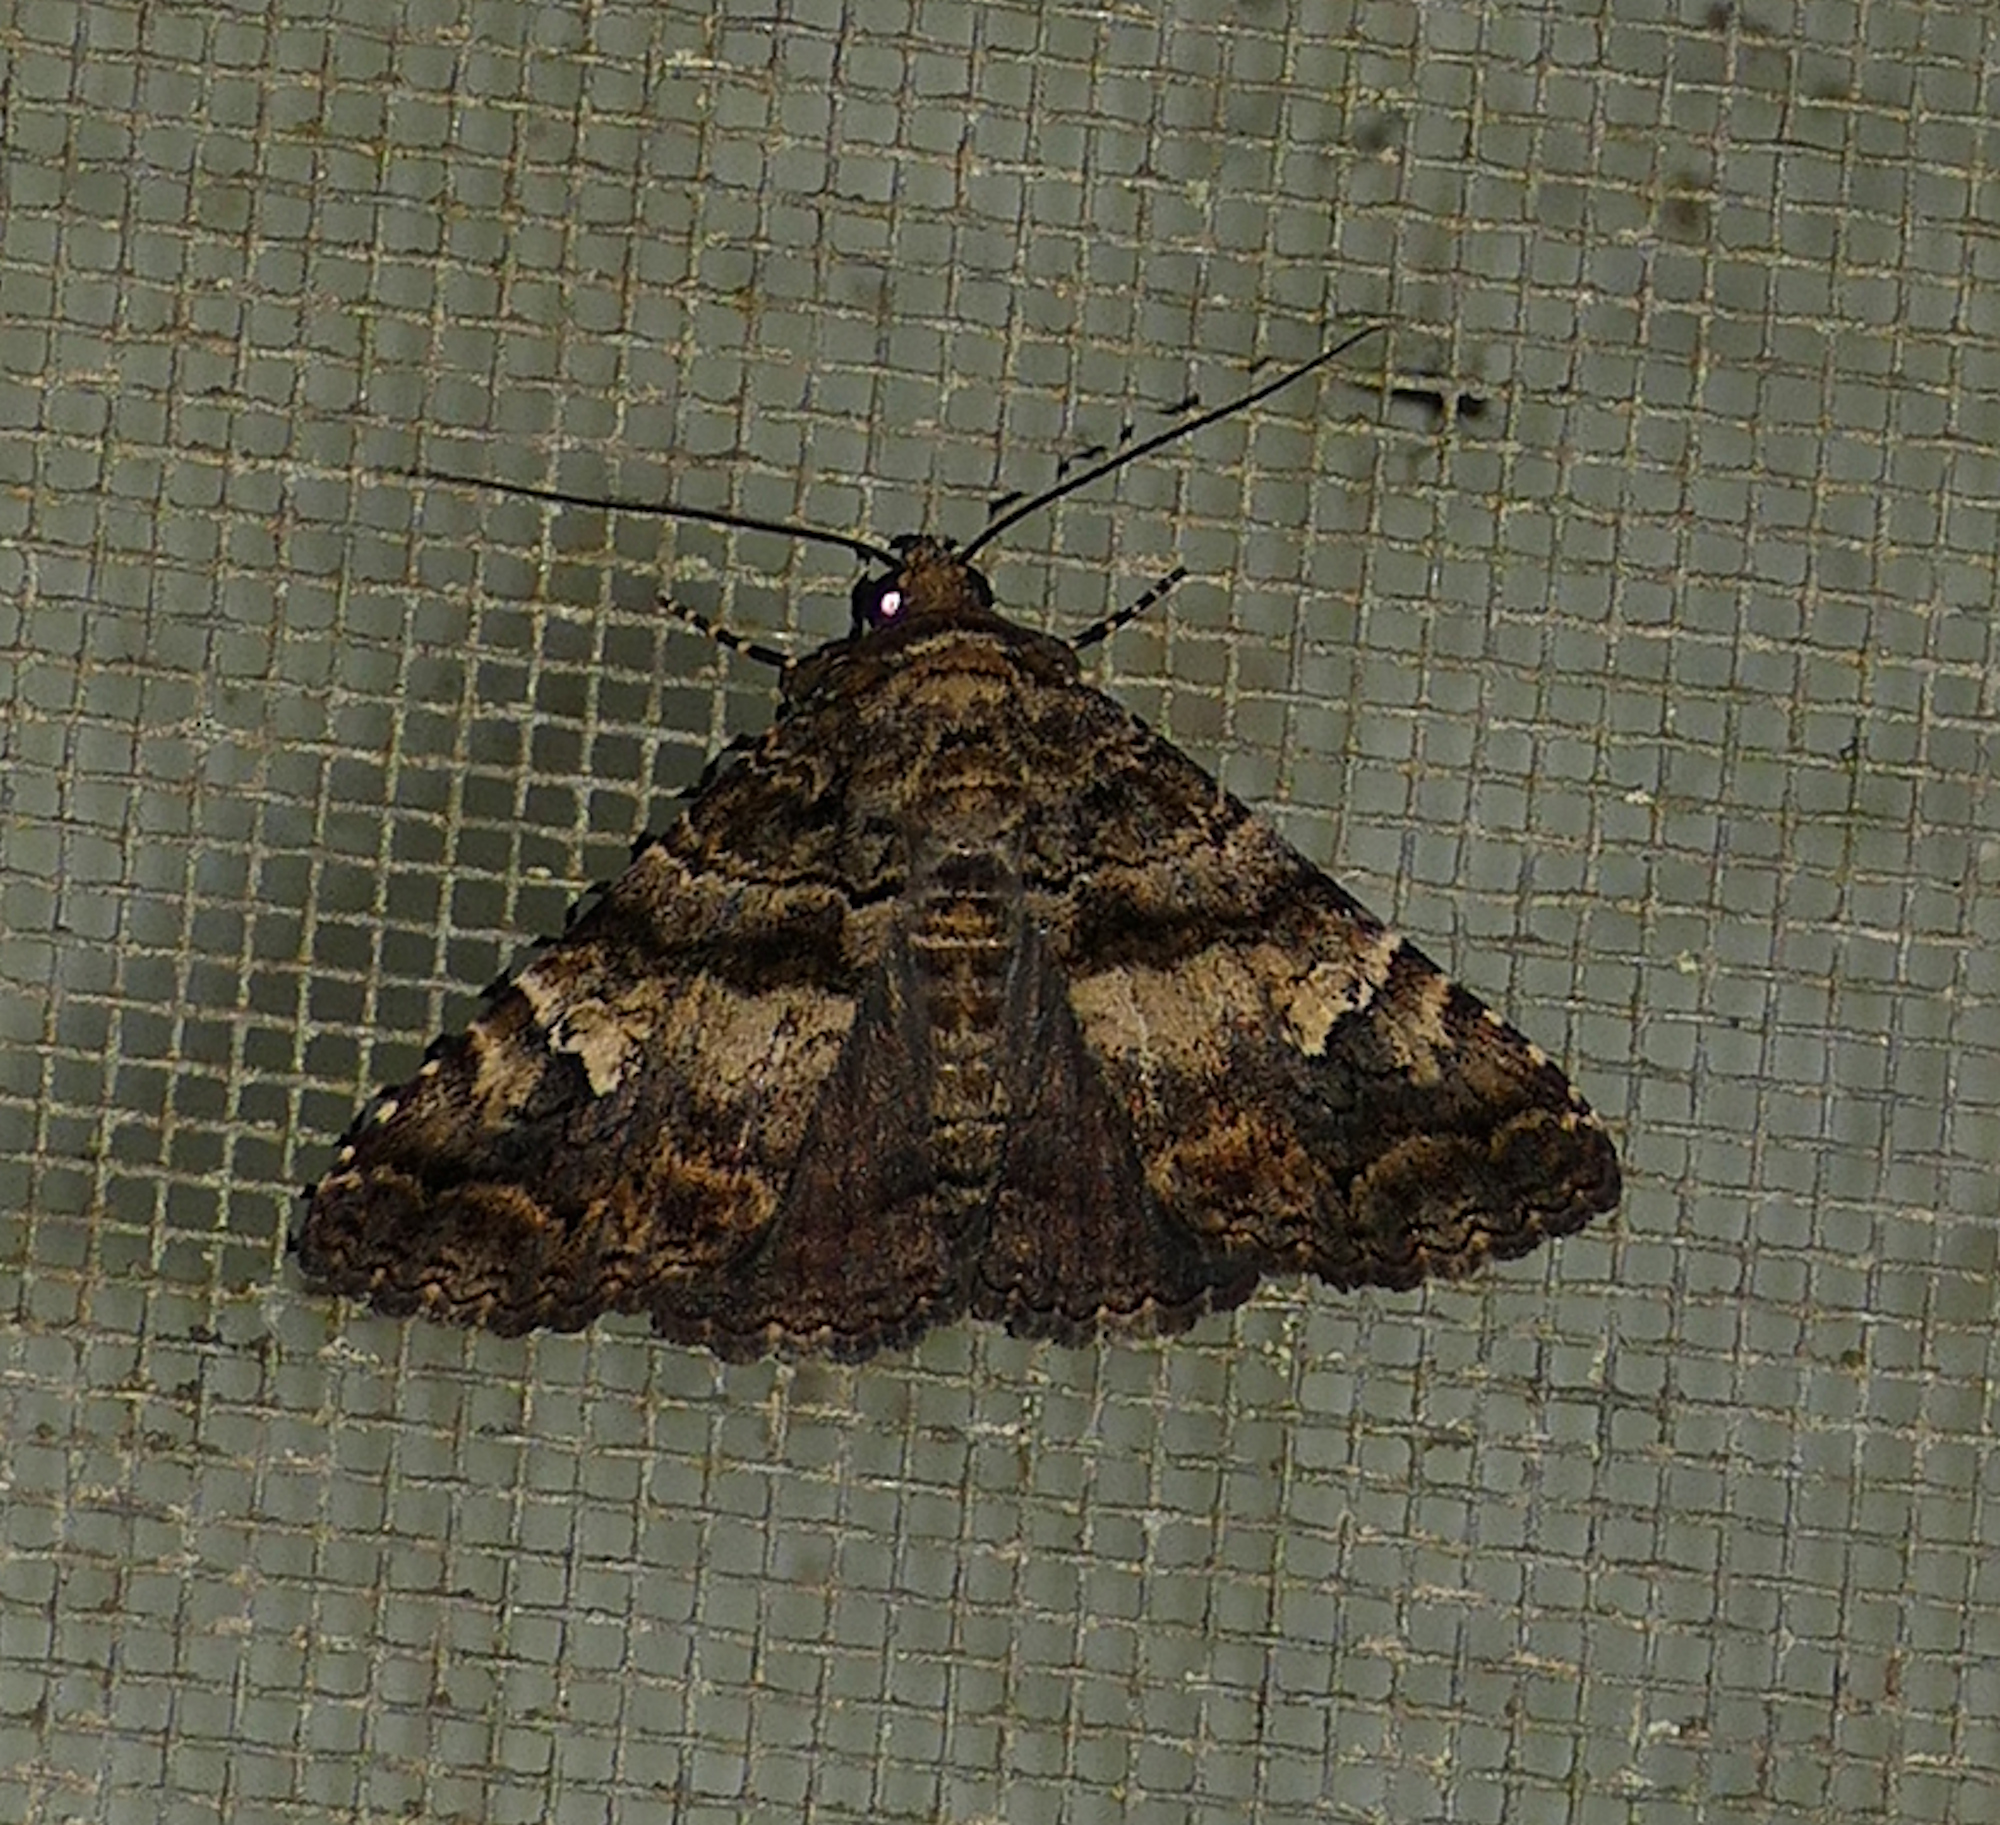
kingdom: Animalia
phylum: Arthropoda
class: Insecta
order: Lepidoptera
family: Erebidae
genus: Metria
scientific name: Metria amella
